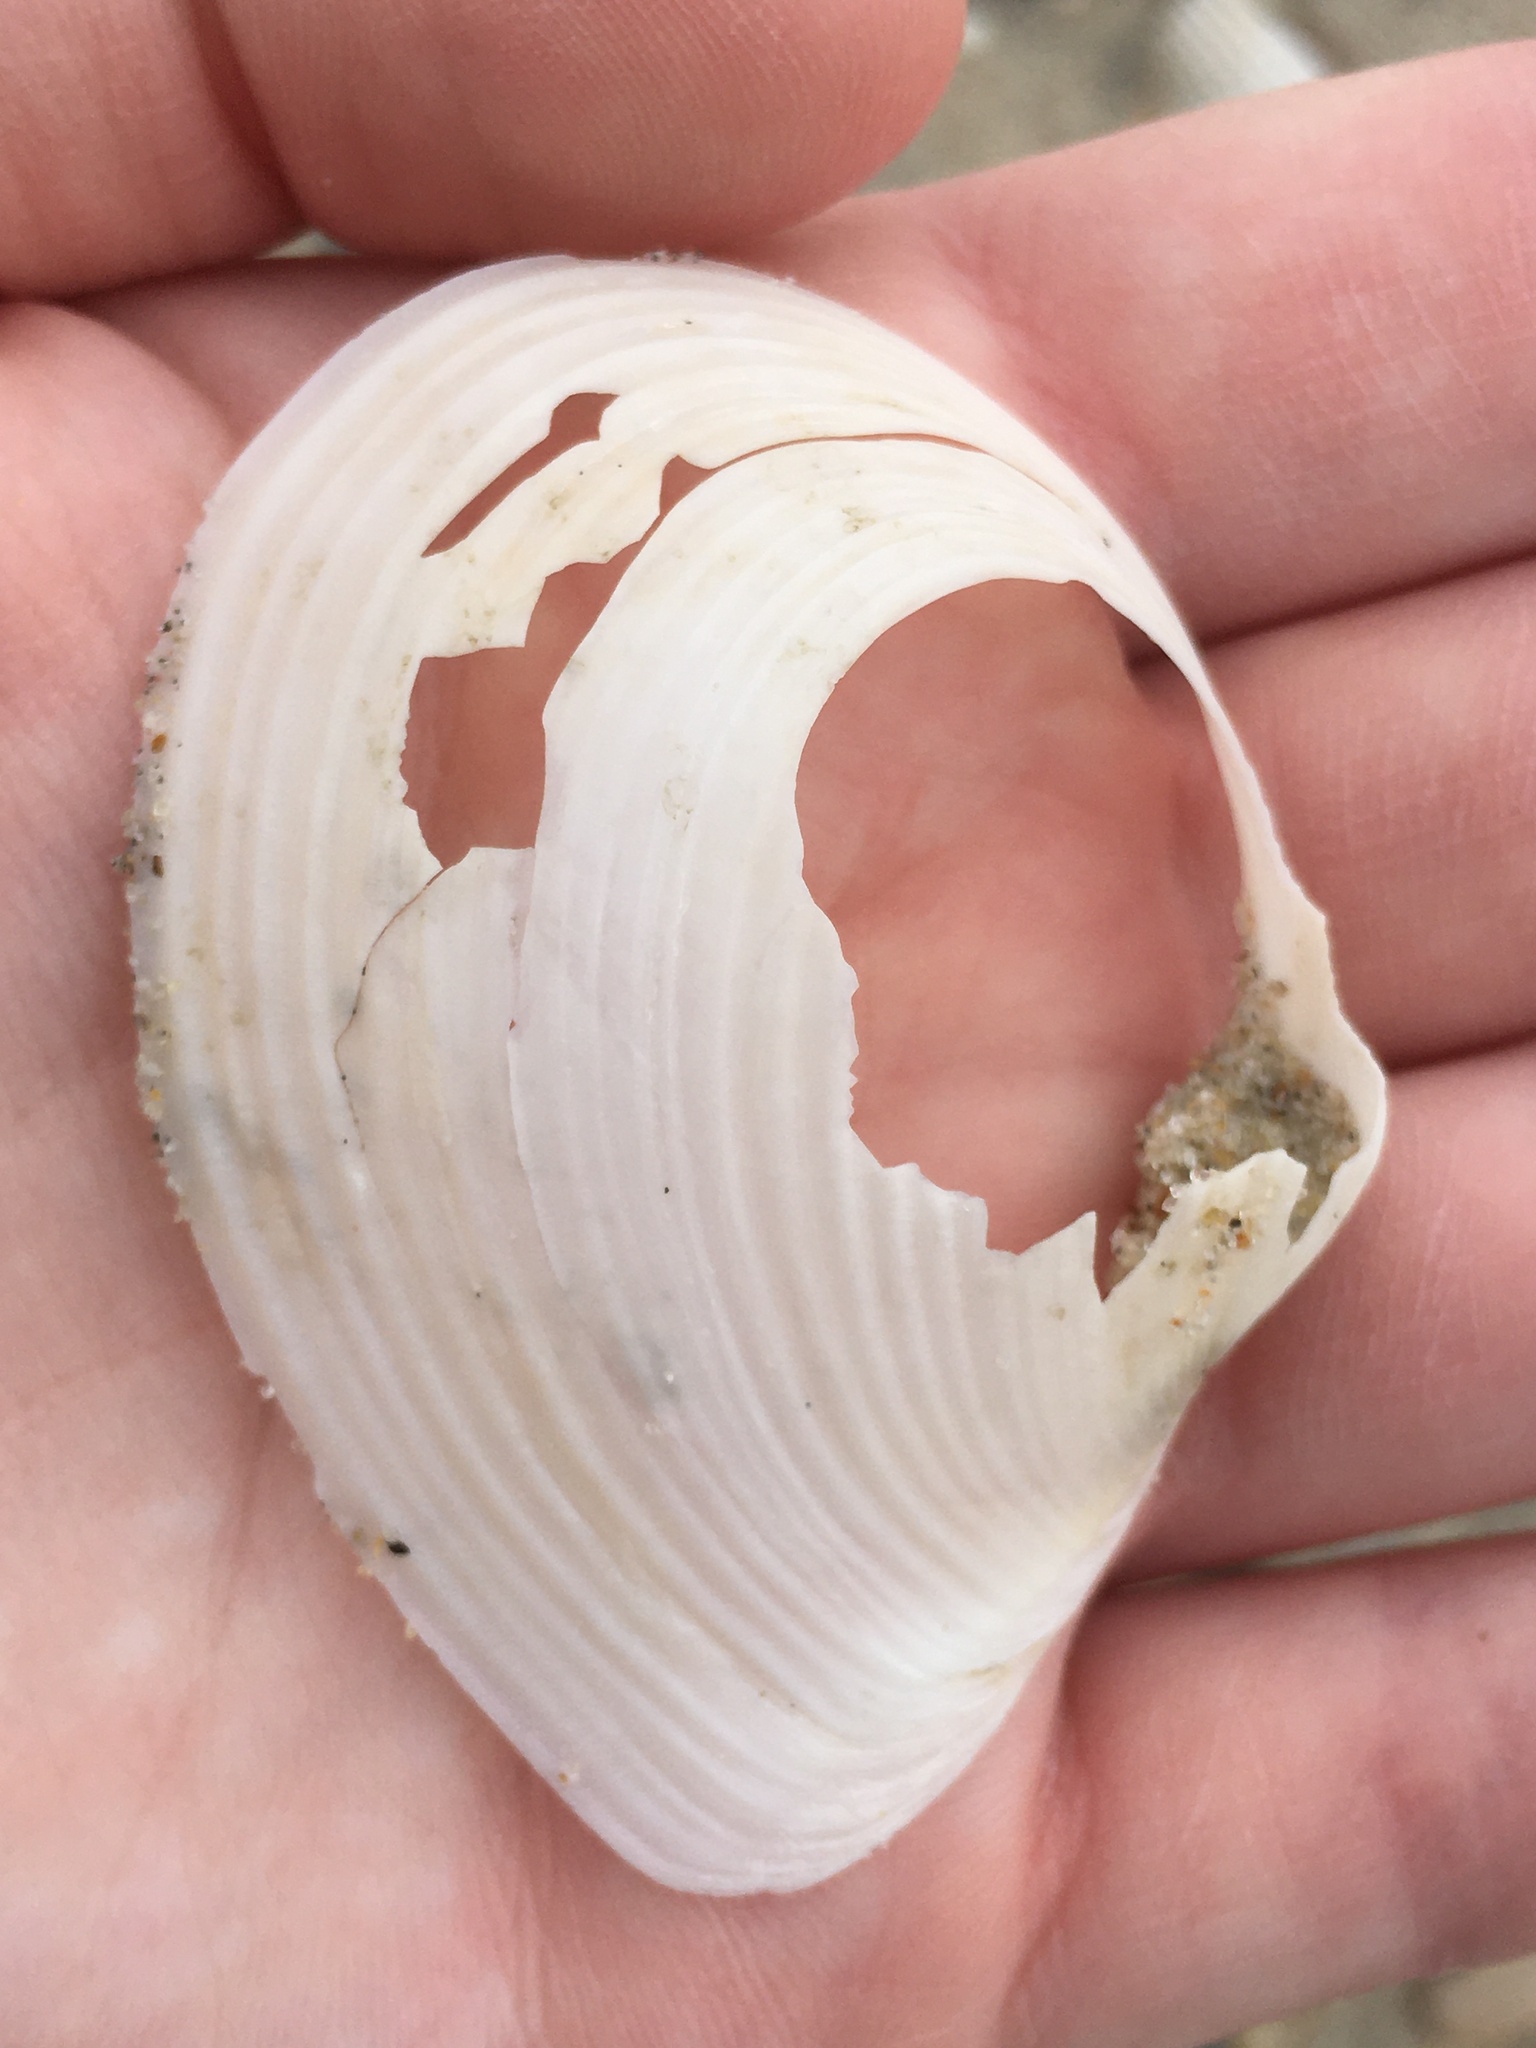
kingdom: Animalia
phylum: Mollusca
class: Bivalvia
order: Venerida
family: Anatinellidae
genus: Raeta
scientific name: Raeta plicatella
